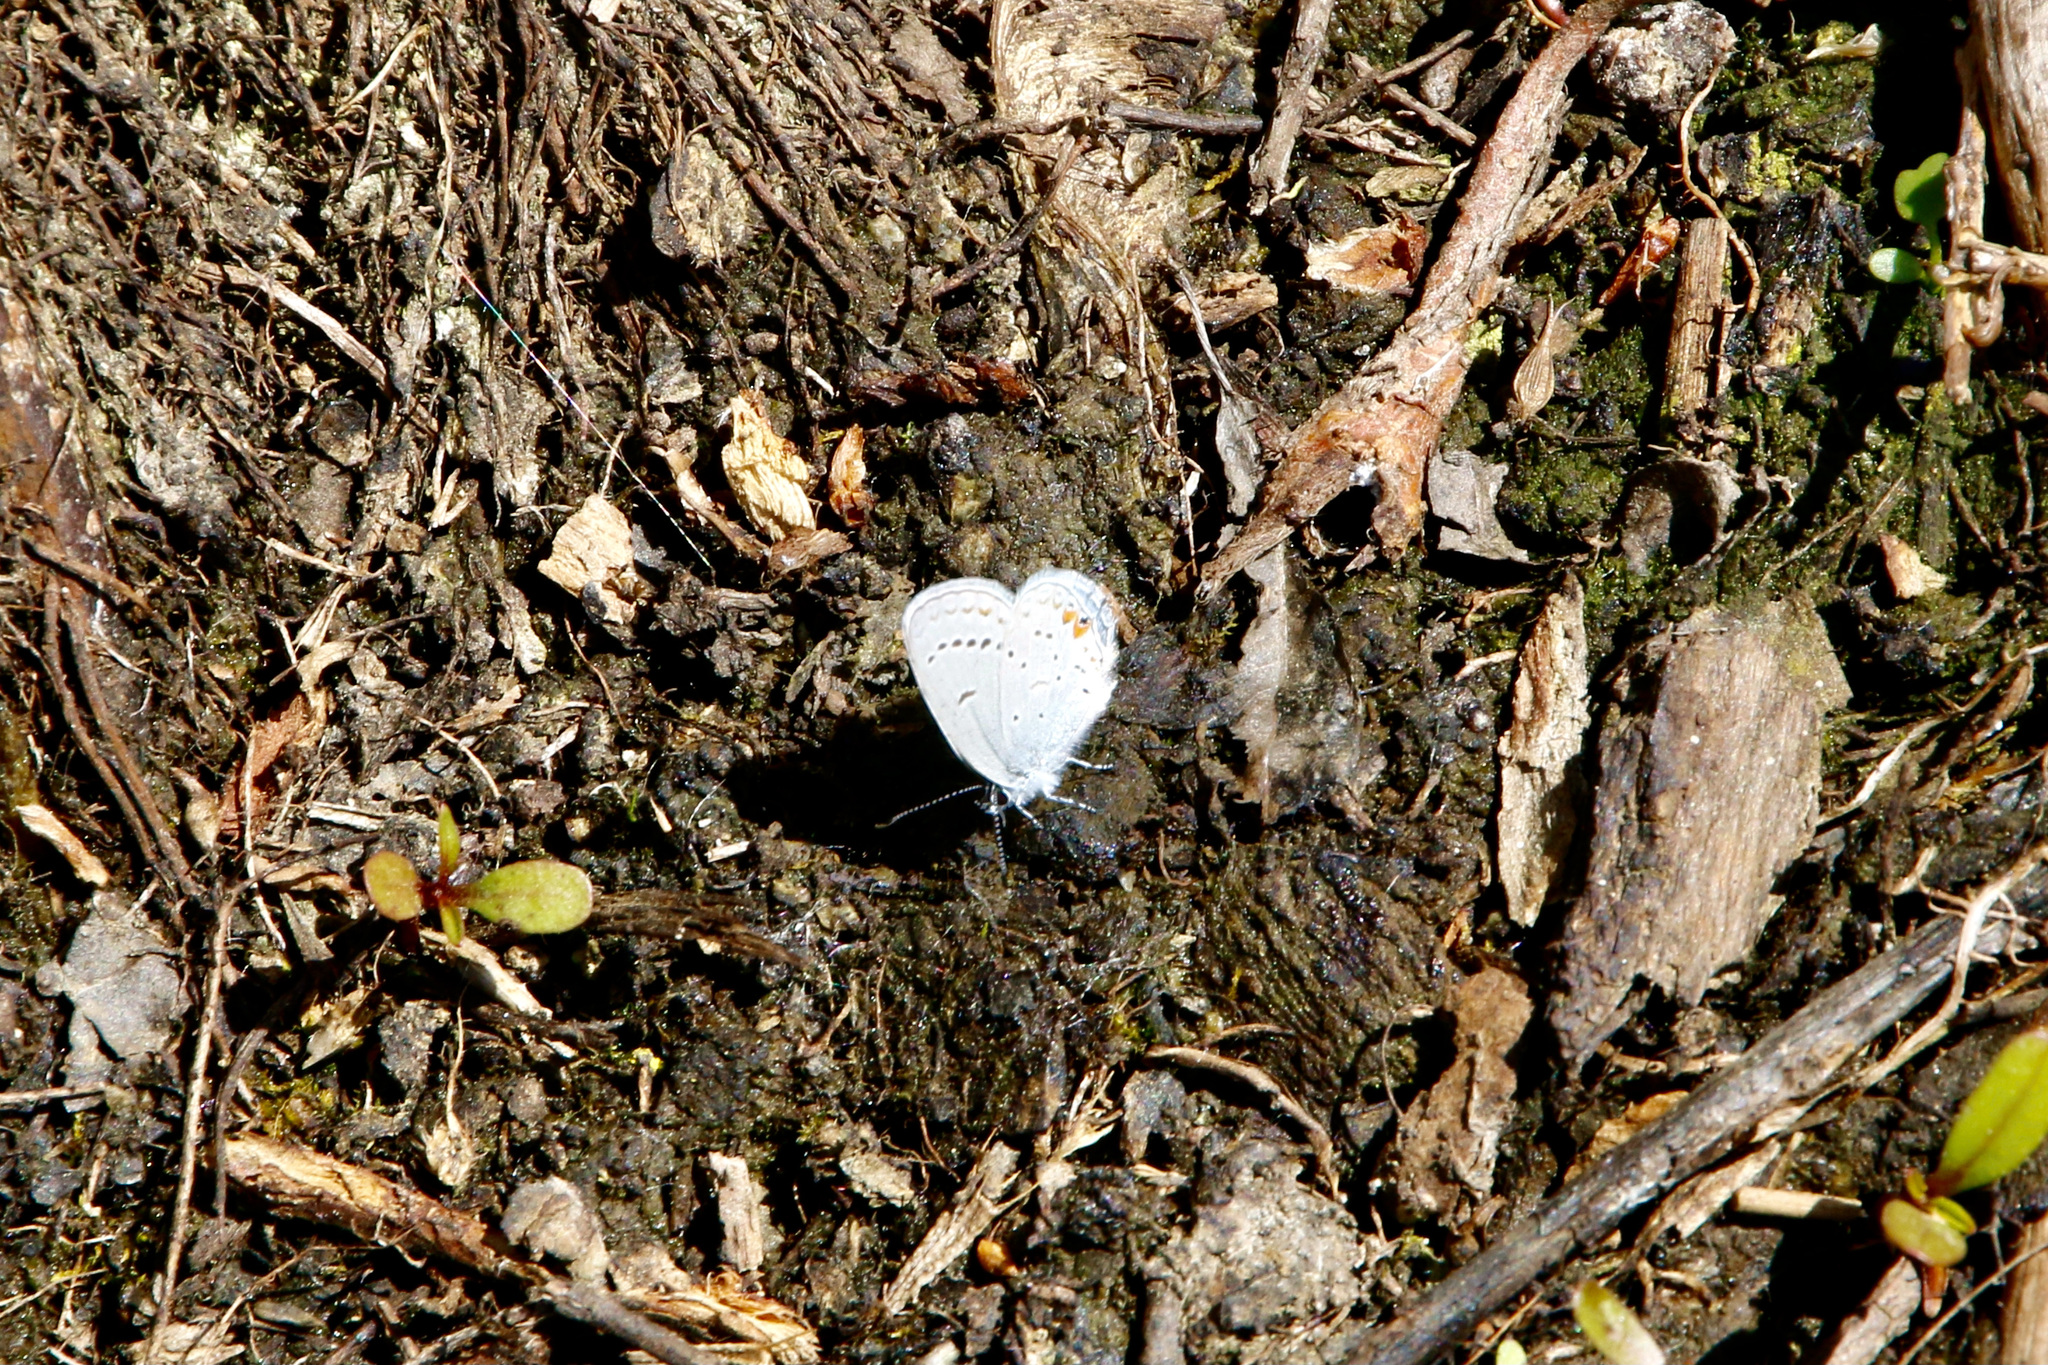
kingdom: Animalia
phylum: Arthropoda
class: Insecta
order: Lepidoptera
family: Lycaenidae
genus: Elkalyce
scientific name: Elkalyce comyntas
